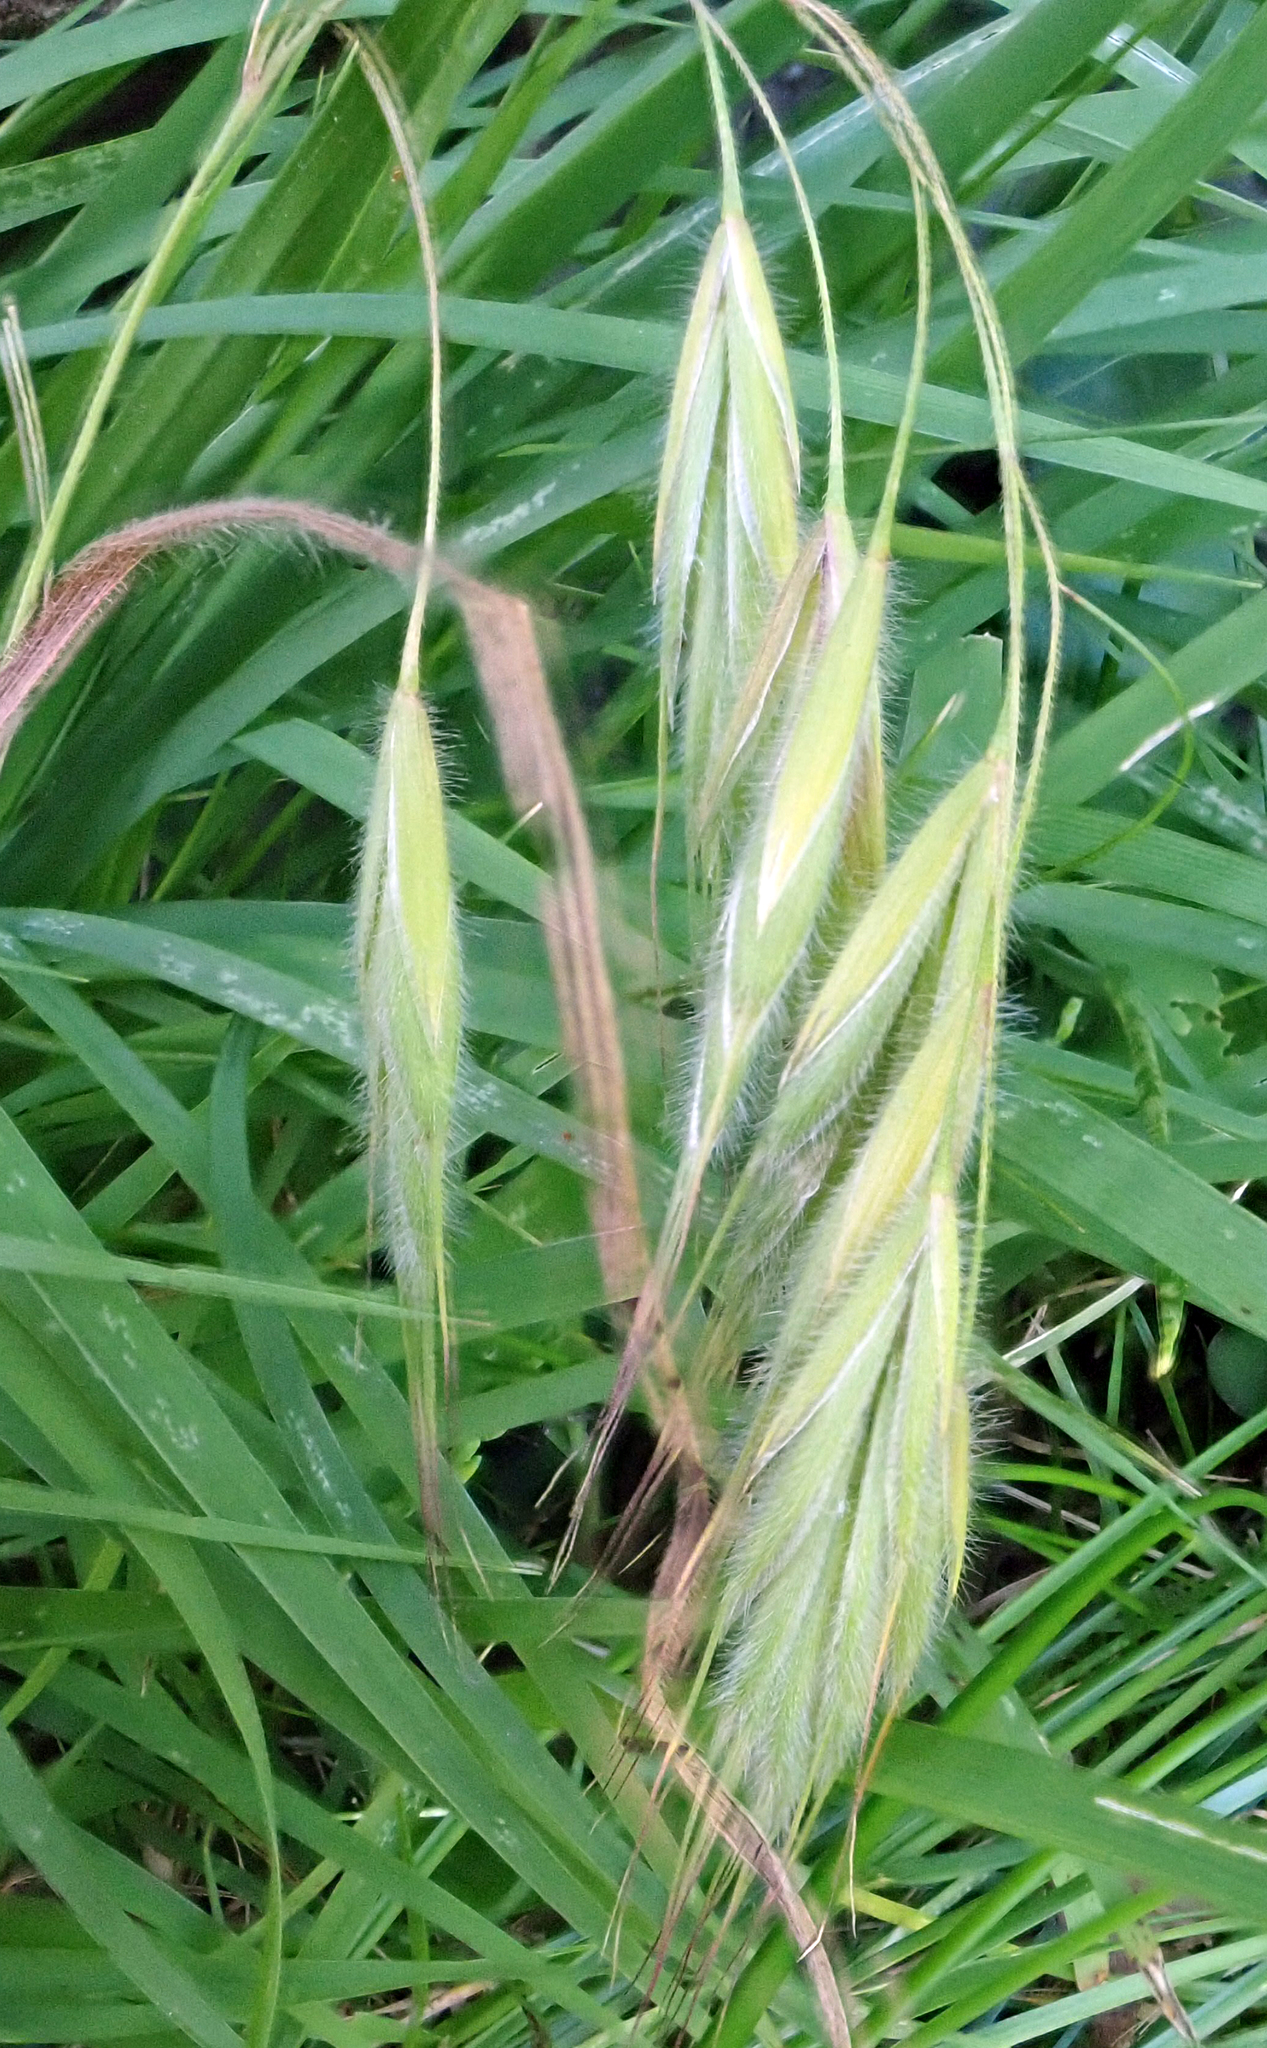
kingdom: Plantae
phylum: Tracheophyta
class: Liliopsida
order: Poales
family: Poaceae
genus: Bromus
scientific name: Bromus arenarius
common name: Australian brome
